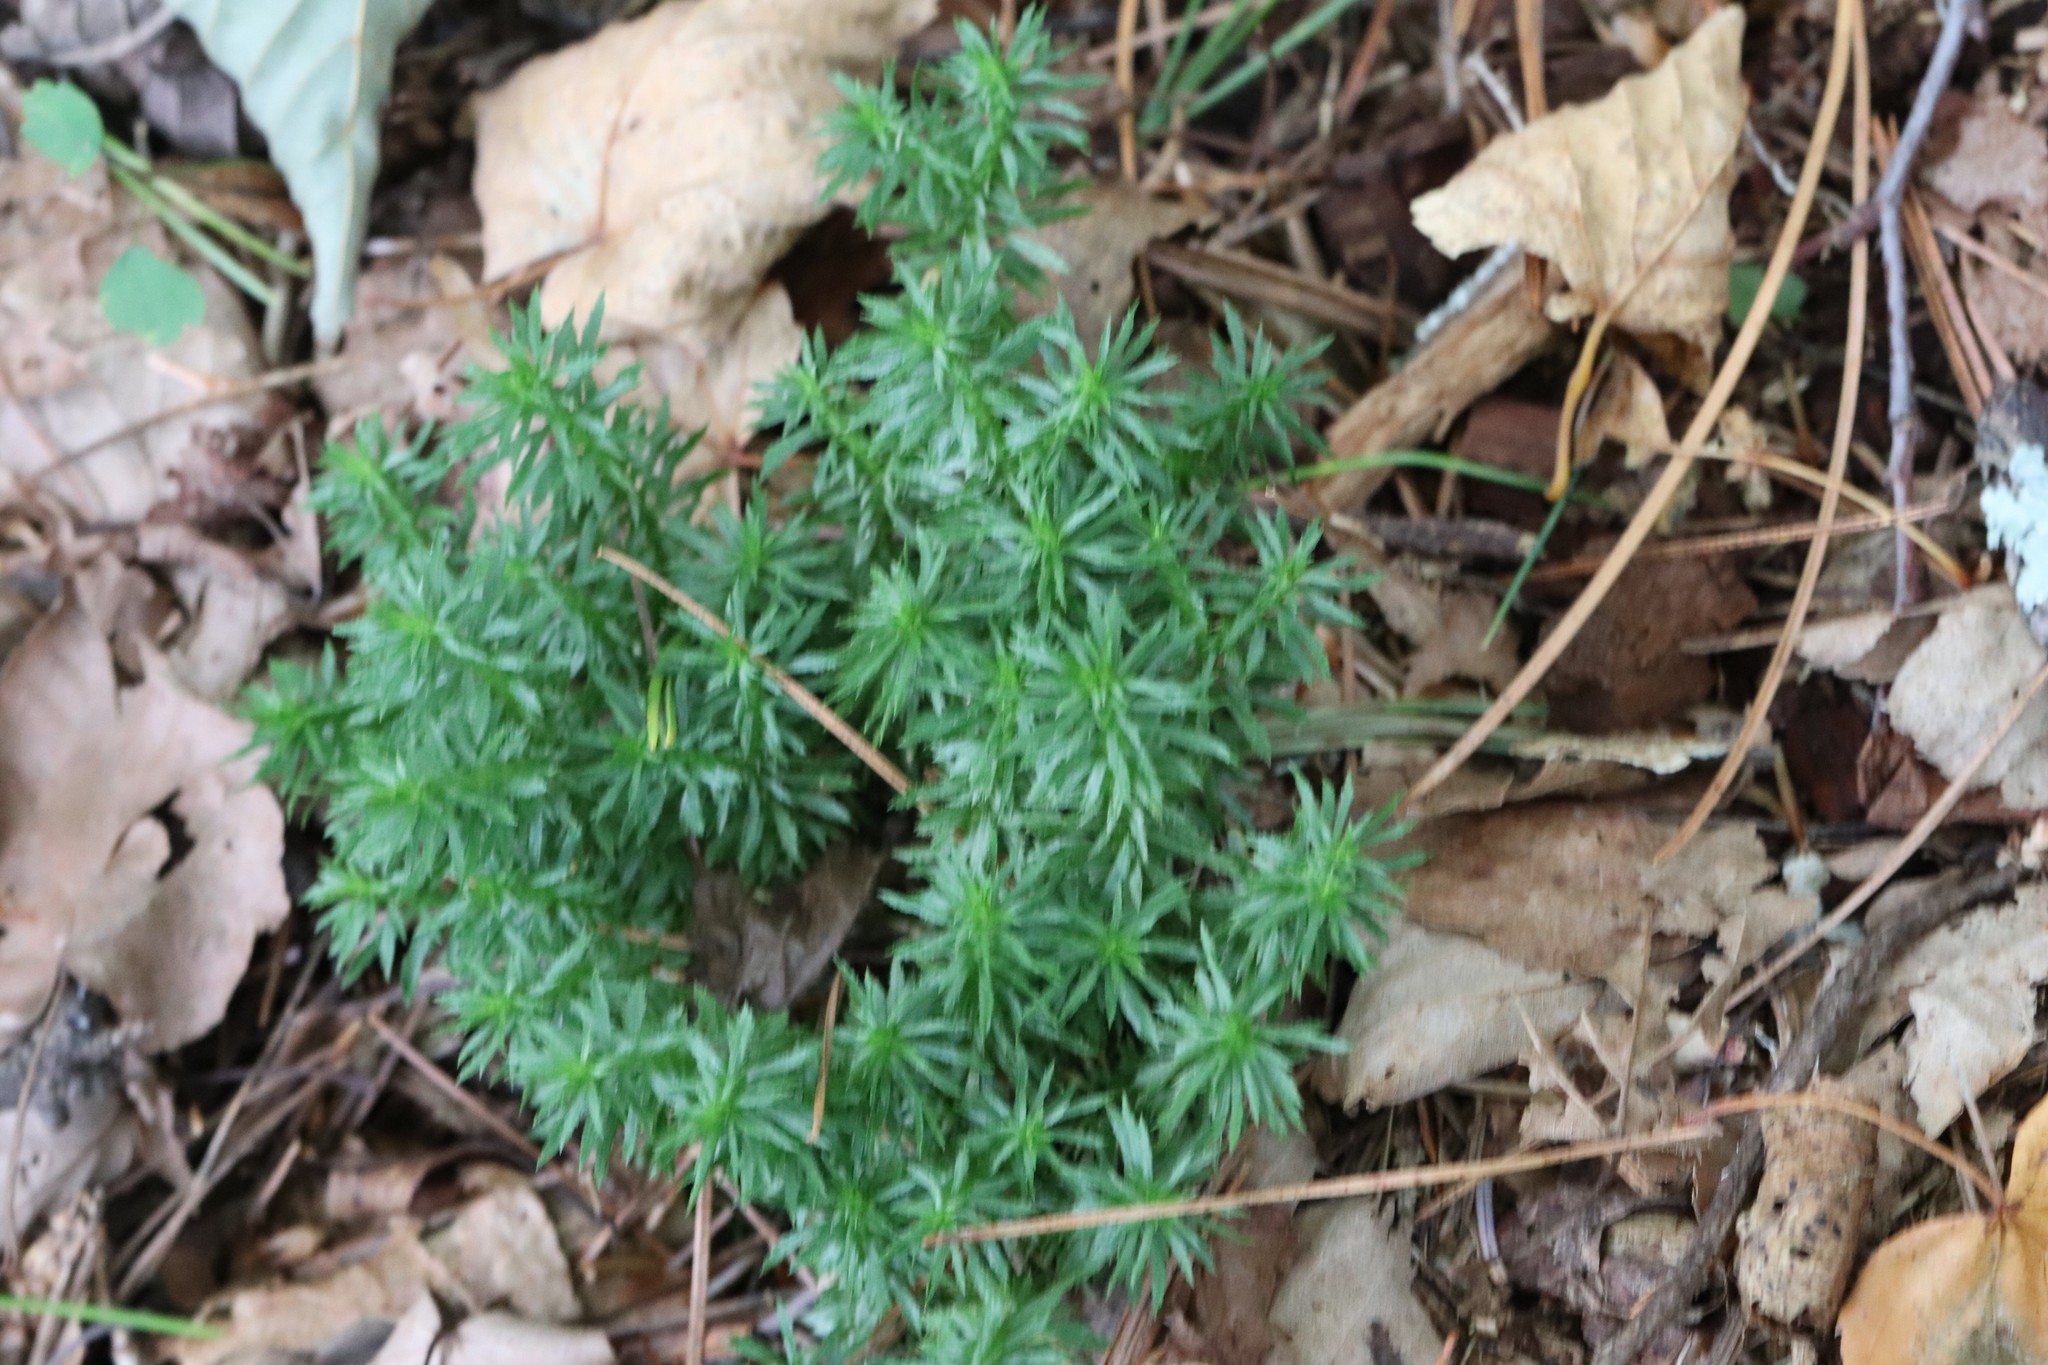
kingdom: Plantae
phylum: Tracheophyta
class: Lycopodiopsida
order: Lycopodiales
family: Lycopodiaceae
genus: Huperzia
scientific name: Huperzia serrata
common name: Toothed club-moss
